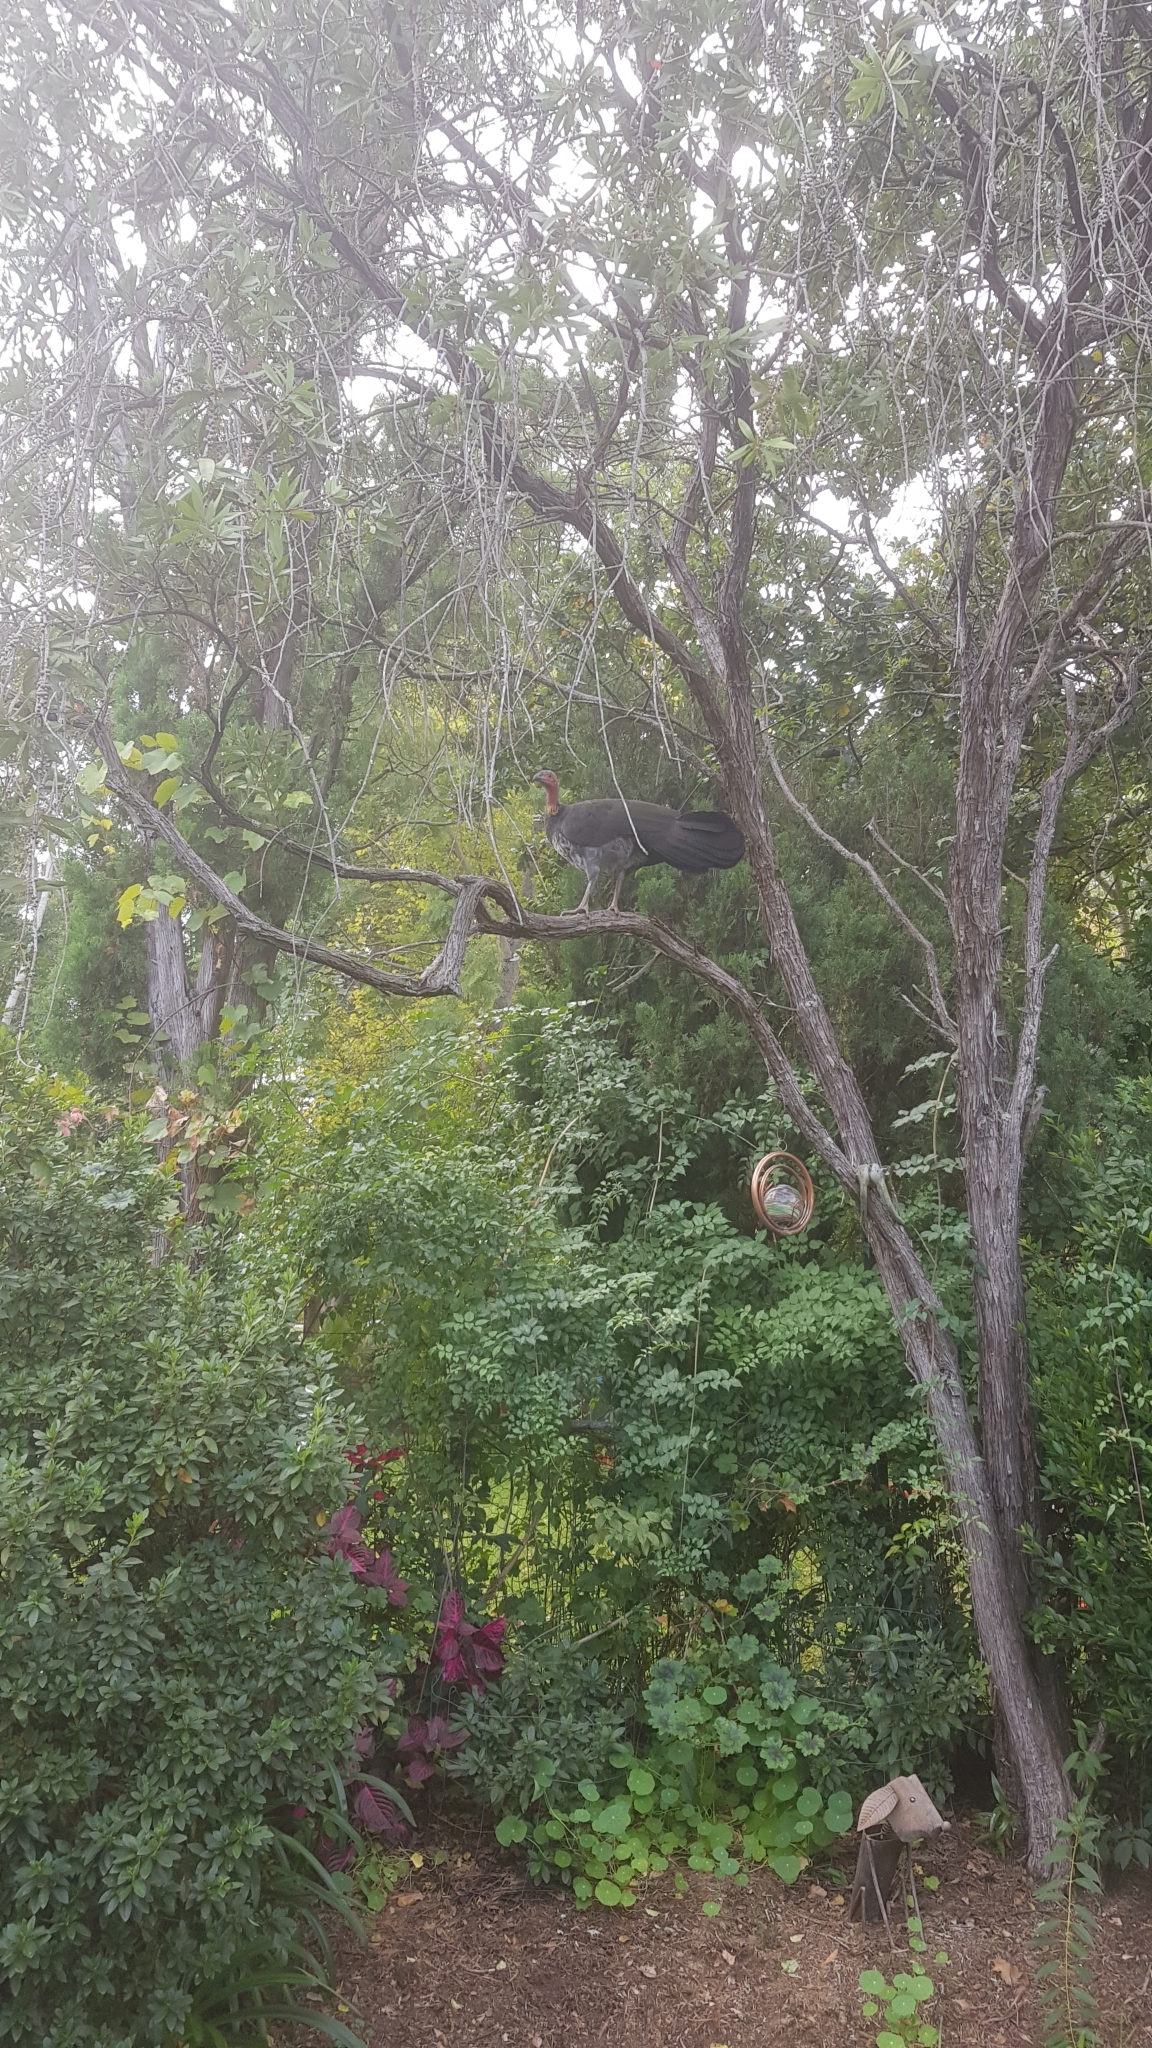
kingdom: Animalia
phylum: Chordata
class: Aves
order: Galliformes
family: Megapodiidae
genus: Alectura
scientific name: Alectura lathami
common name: Australian brushturkey
